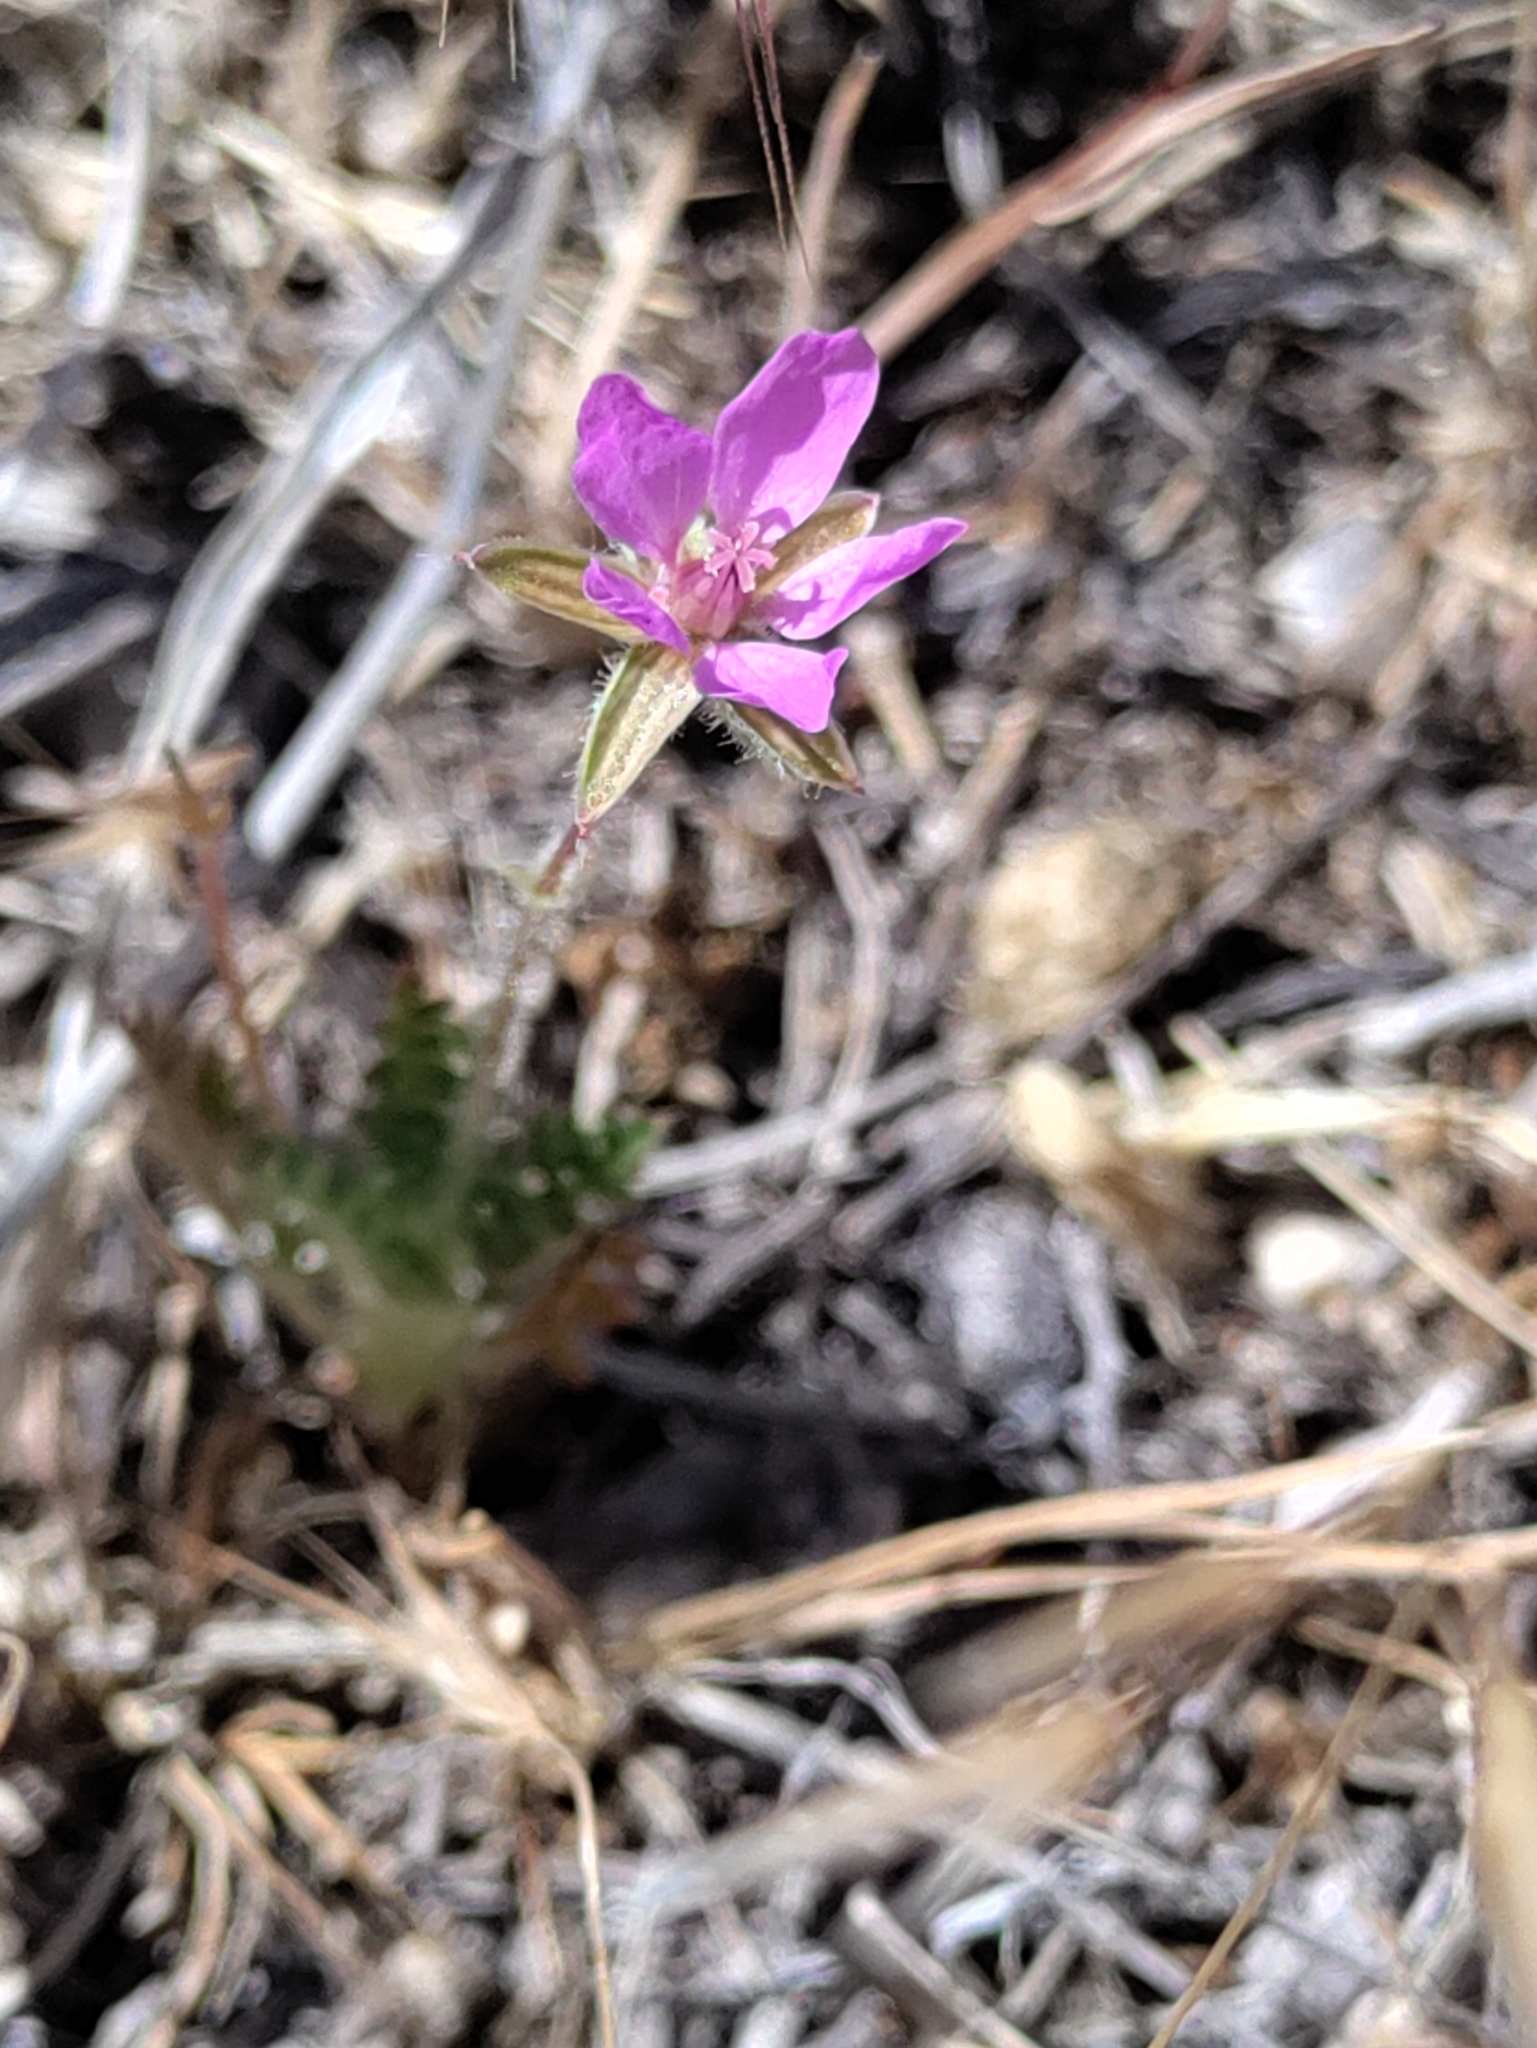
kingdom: Plantae
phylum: Tracheophyta
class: Magnoliopsida
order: Geraniales
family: Geraniaceae
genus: Erodium
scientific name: Erodium cicutarium
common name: Common stork's-bill
